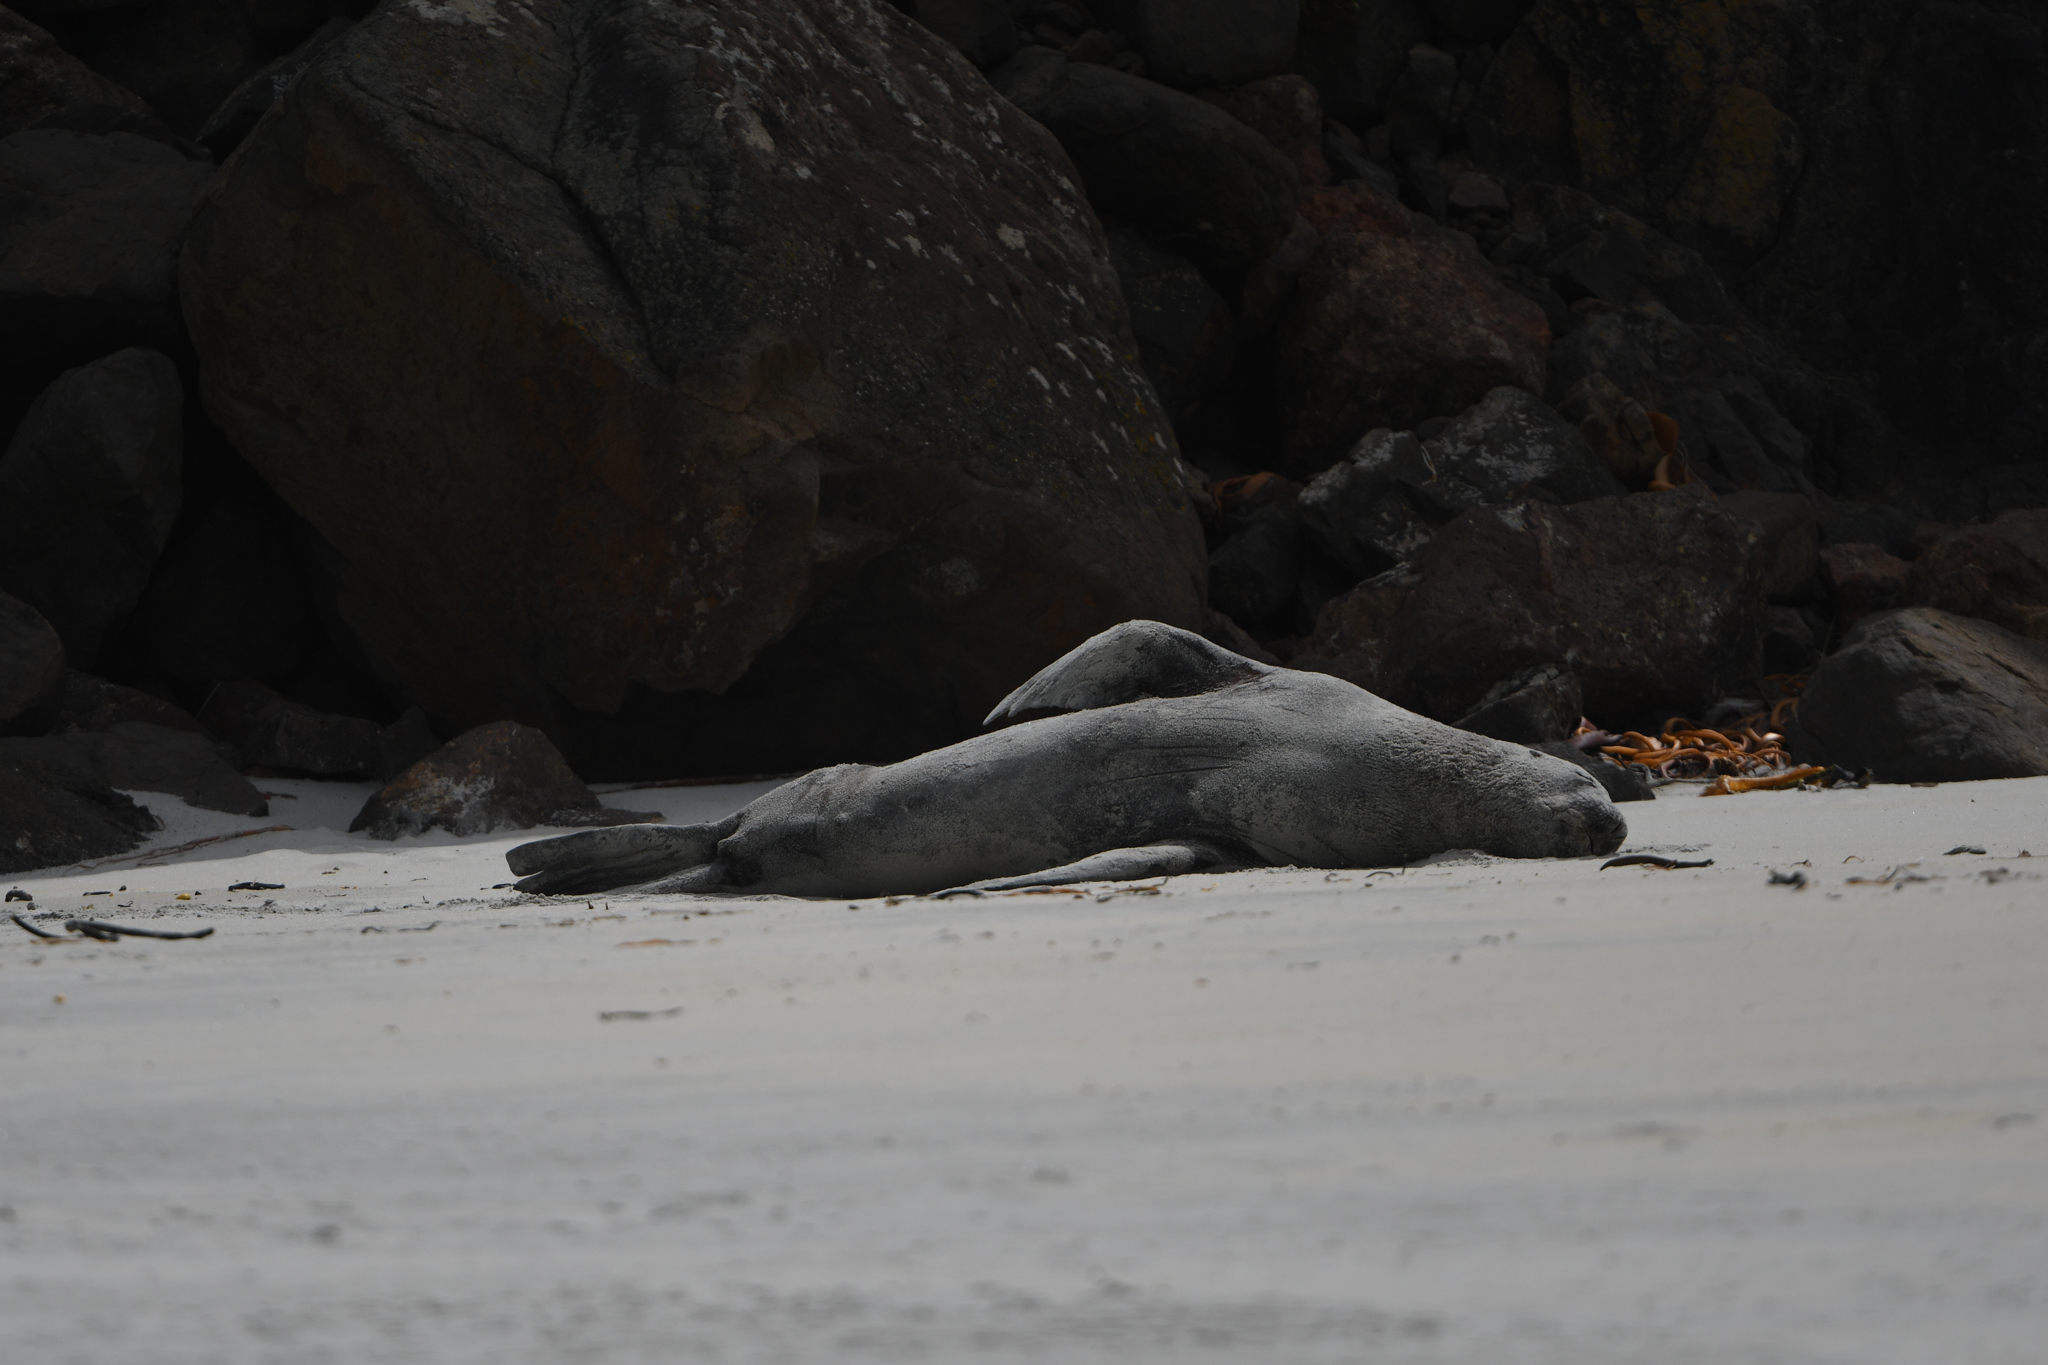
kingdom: Animalia
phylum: Chordata
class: Mammalia
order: Carnivora
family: Otariidae
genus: Phocarctos
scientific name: Phocarctos hookeri
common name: New zealand sea lion
